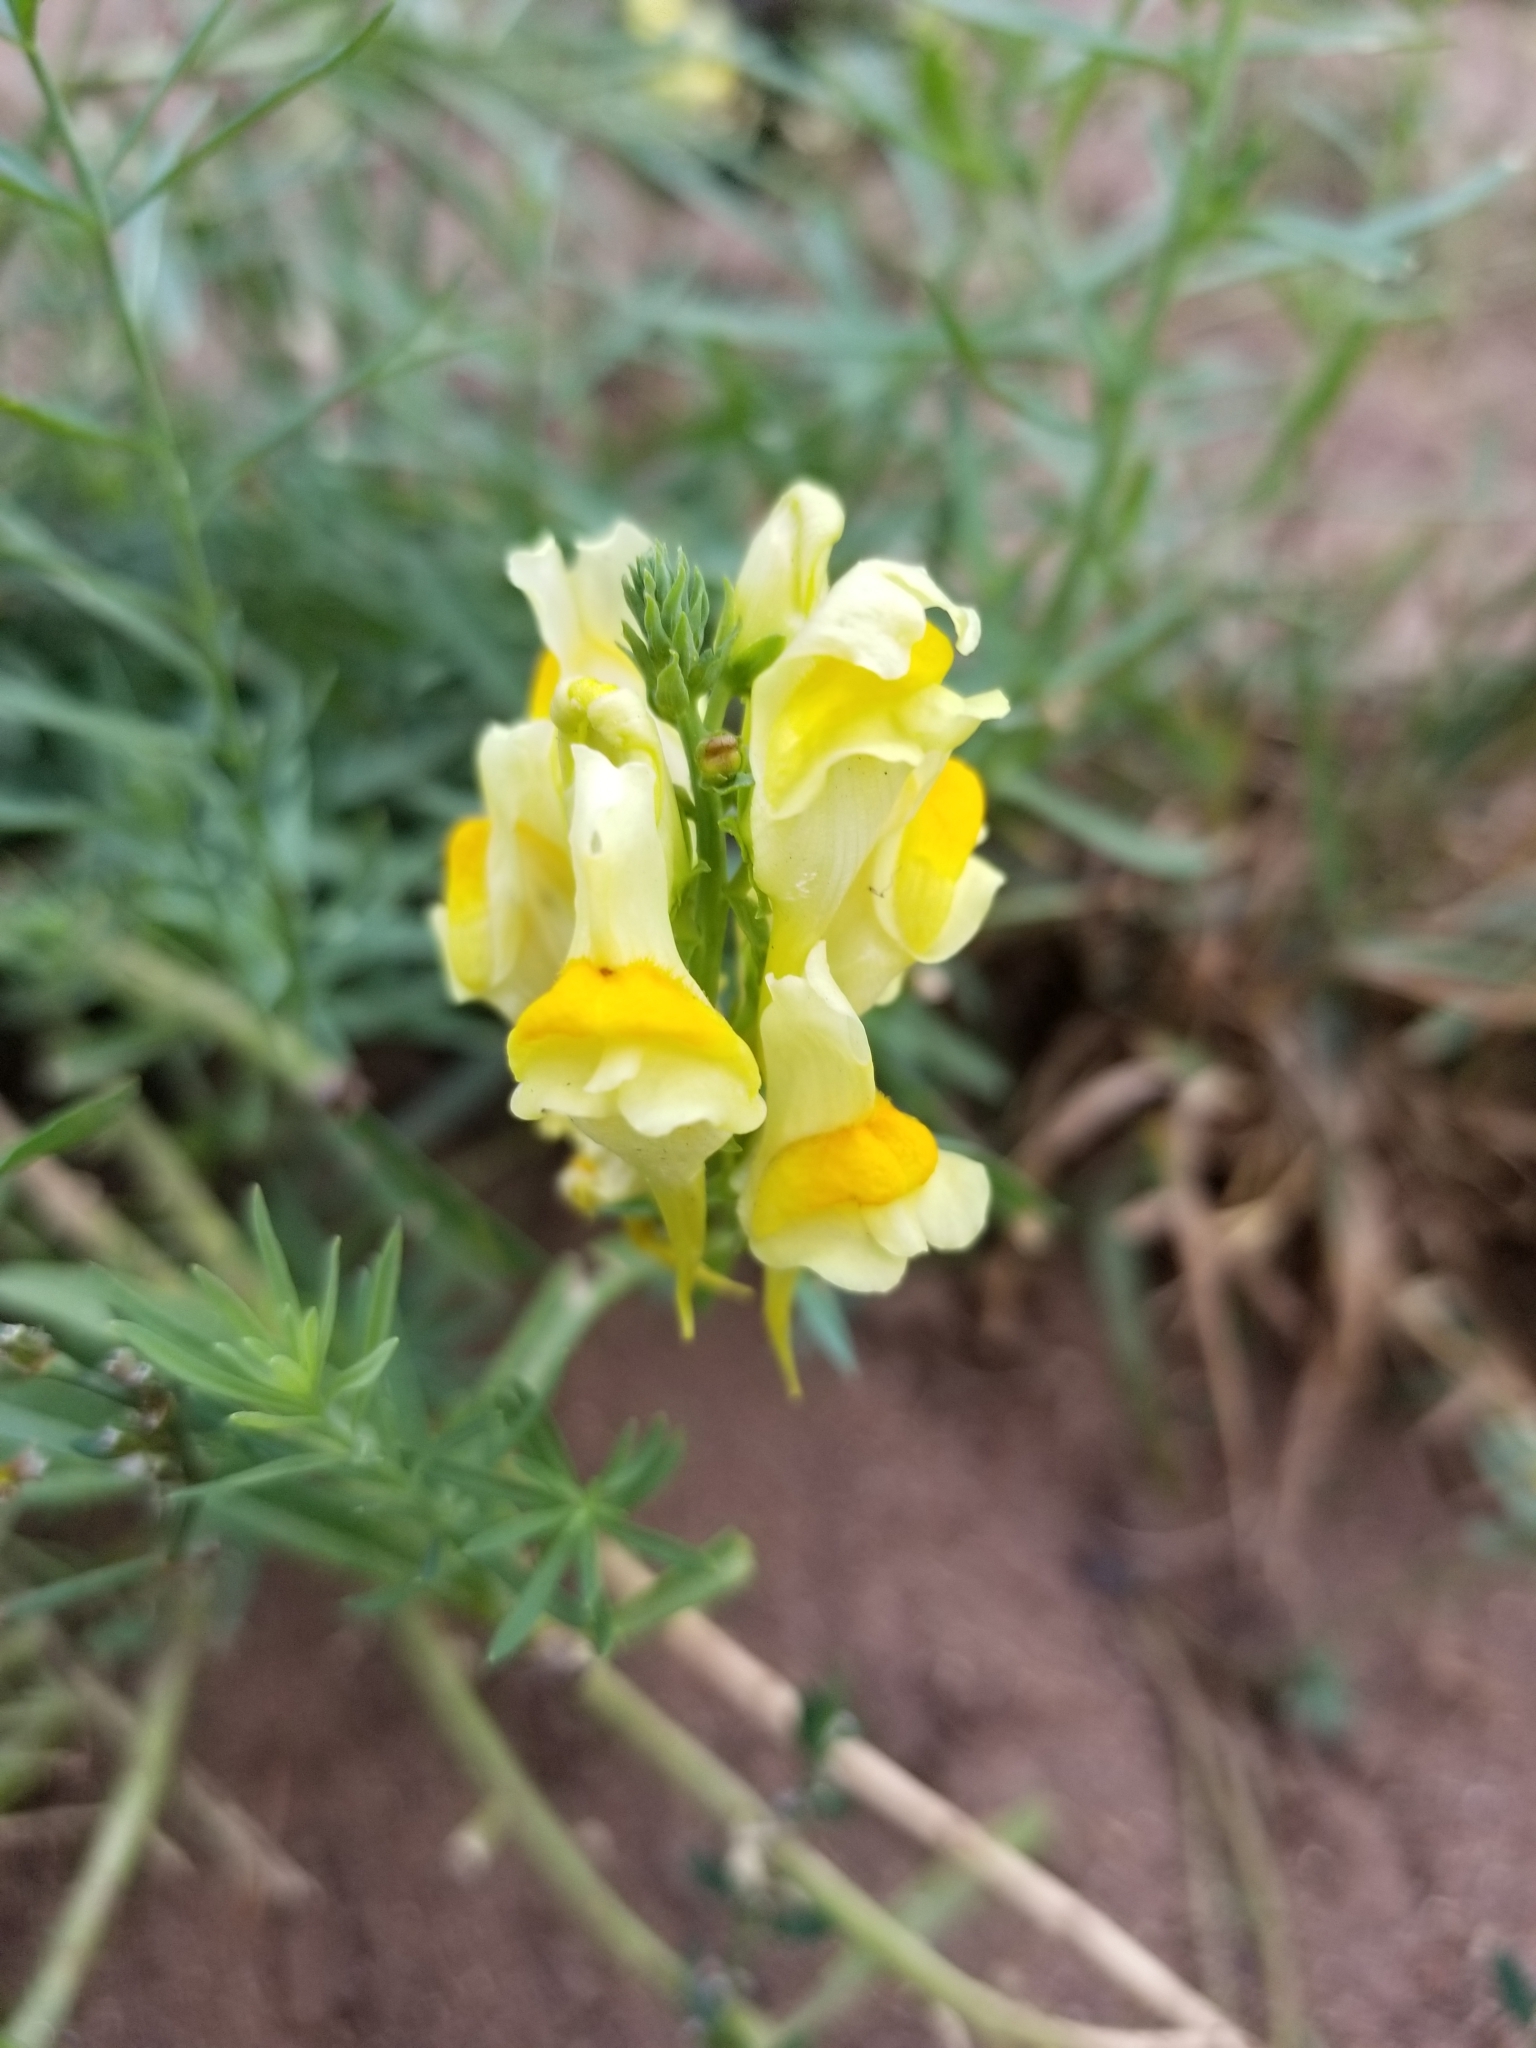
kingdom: Plantae
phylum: Tracheophyta
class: Magnoliopsida
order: Lamiales
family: Plantaginaceae
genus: Linaria
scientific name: Linaria vulgaris
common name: Butter and eggs
